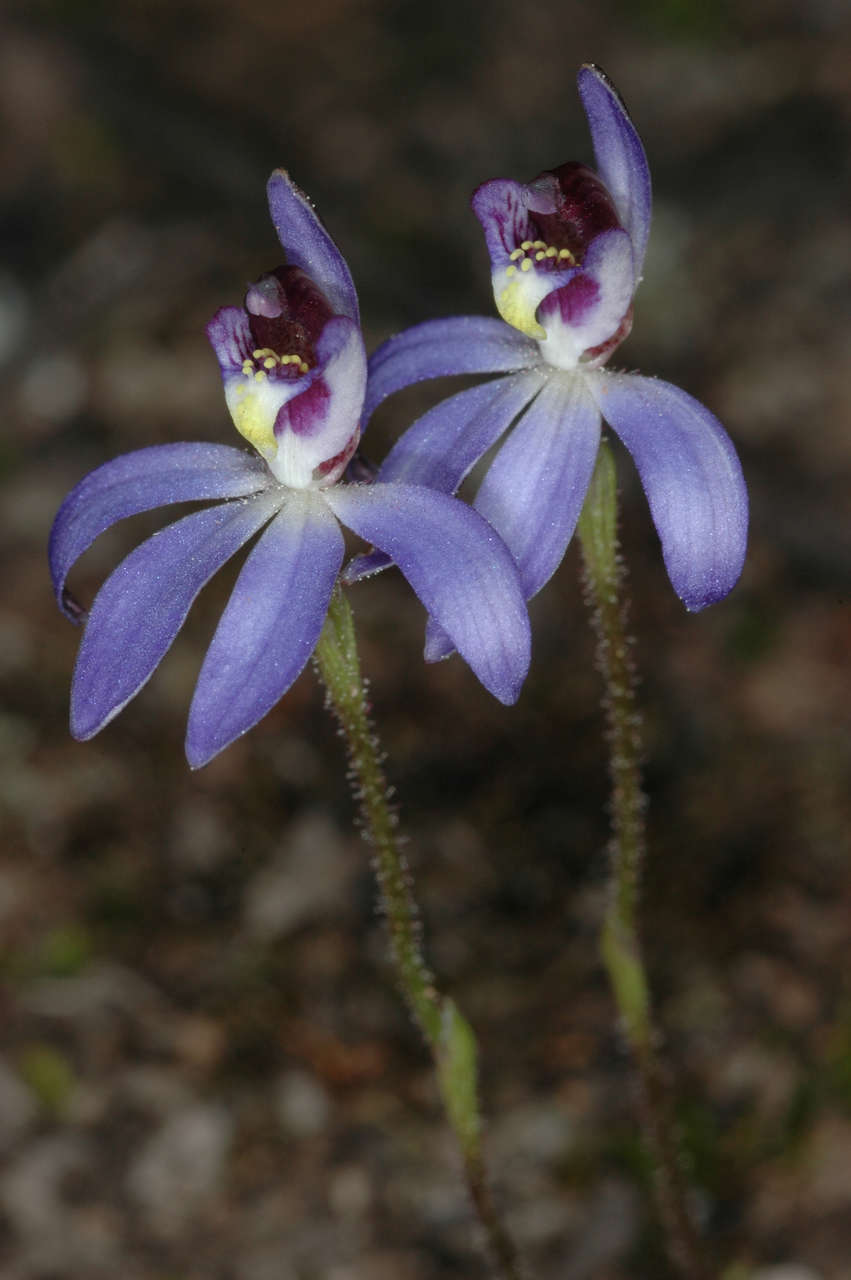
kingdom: Plantae
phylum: Tracheophyta
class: Liliopsida
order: Asparagales
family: Orchidaceae
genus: Caladenia
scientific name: Caladenia caerulea
